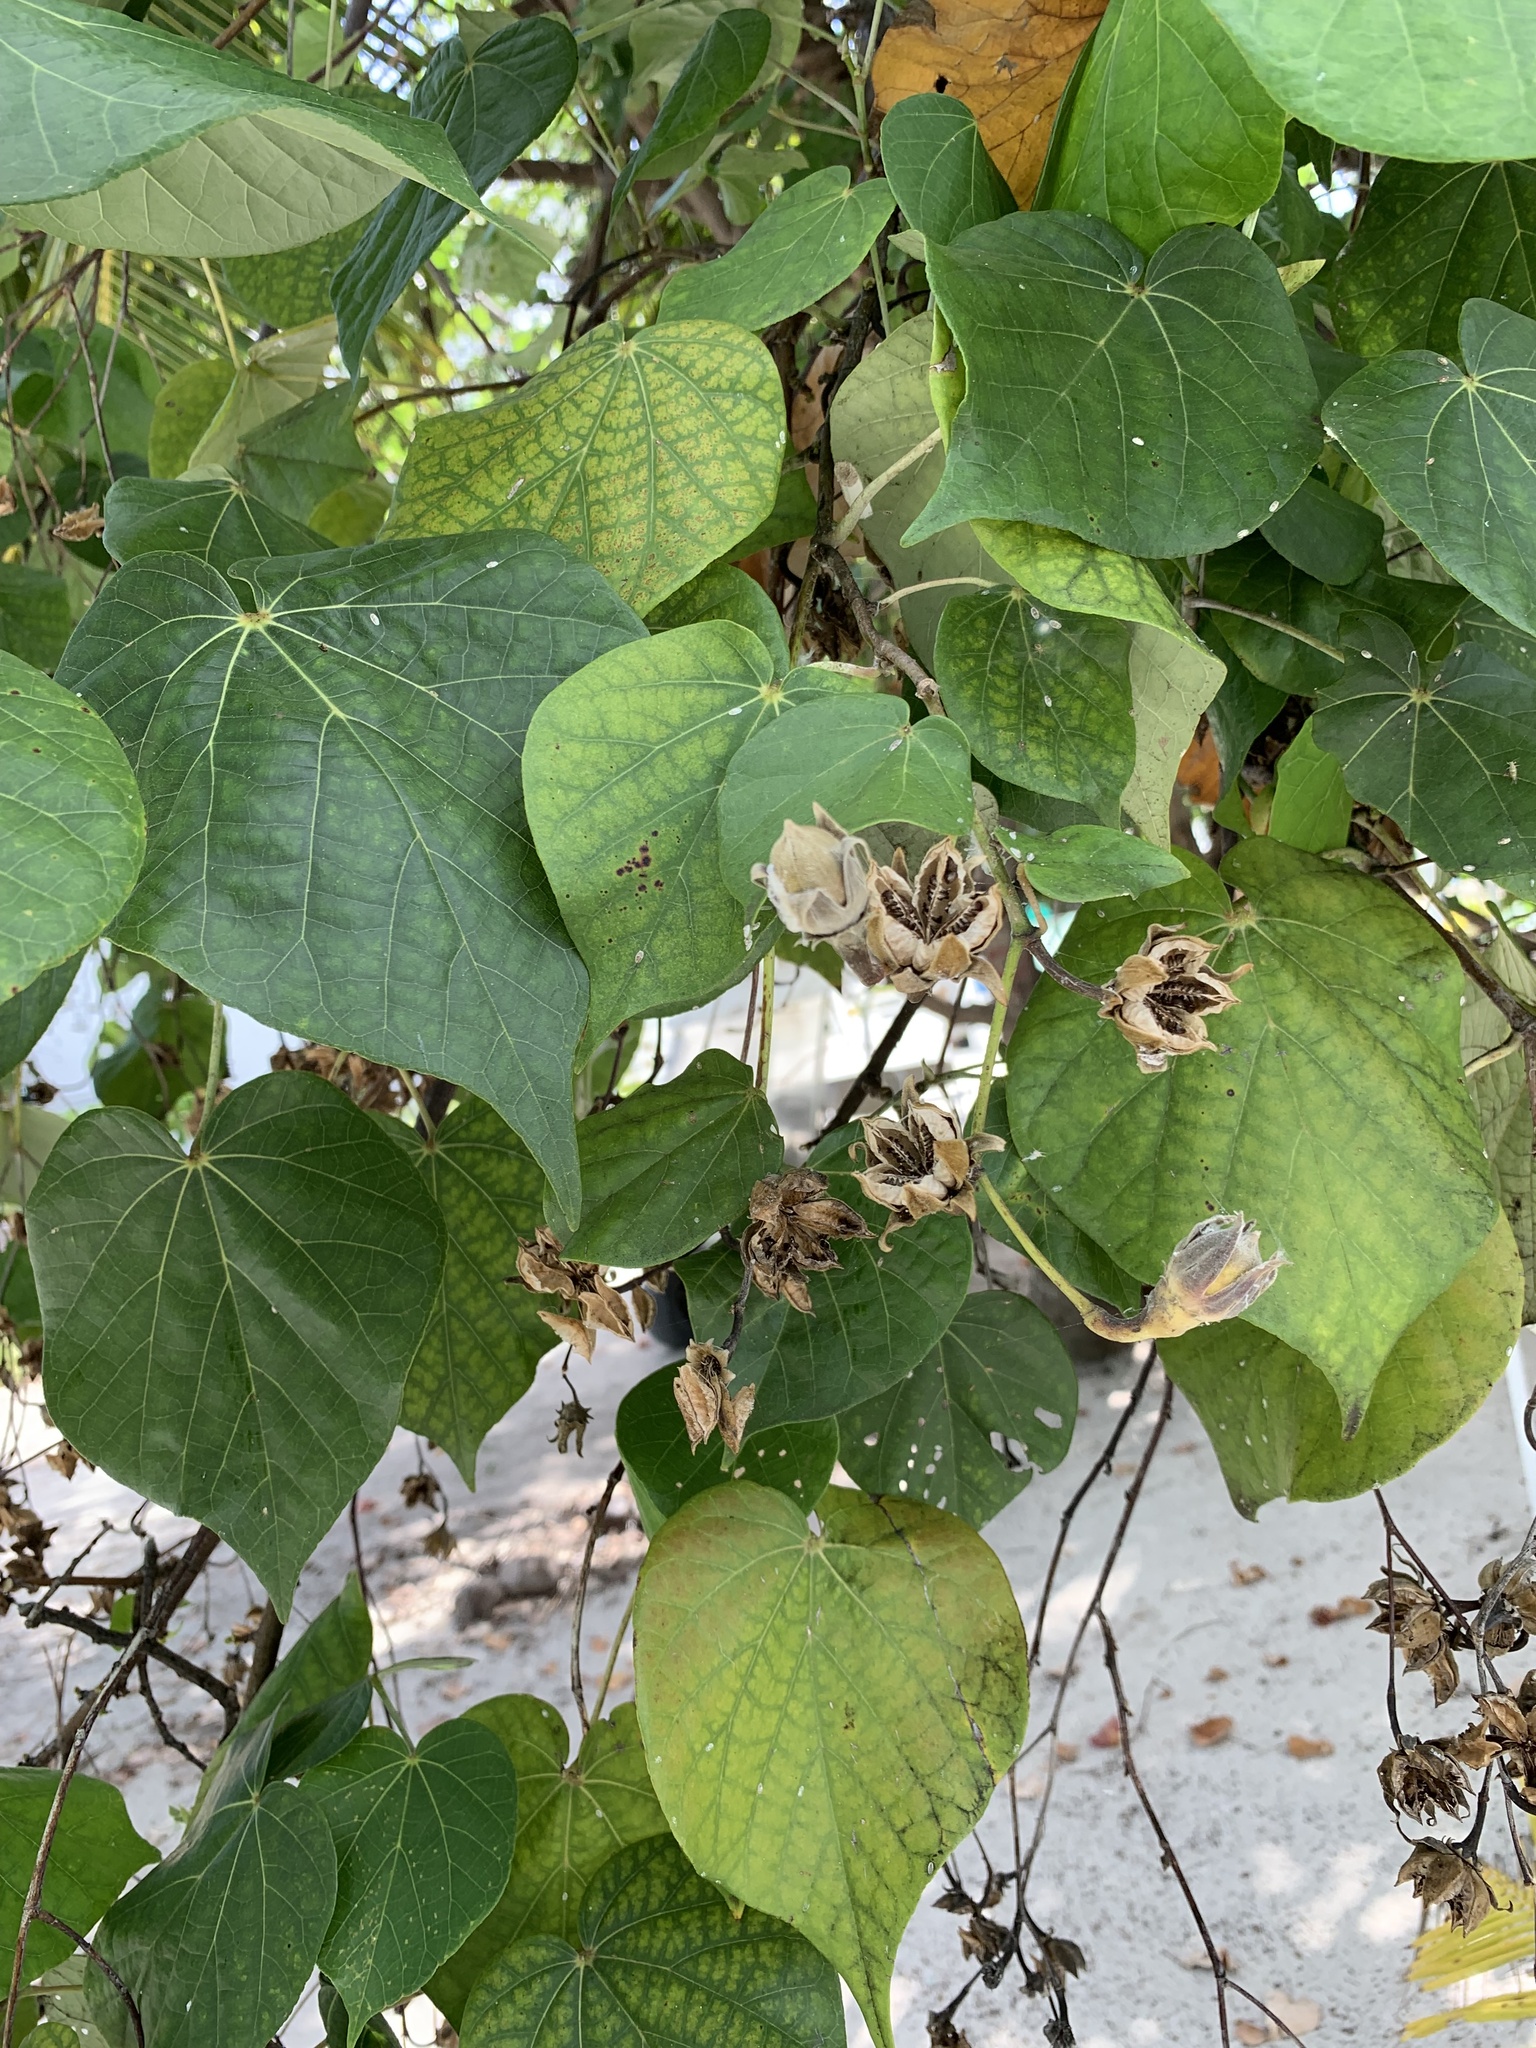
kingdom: Plantae
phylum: Tracheophyta
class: Magnoliopsida
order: Malvales
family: Malvaceae
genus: Talipariti
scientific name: Talipariti tiliaceum
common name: Sea hibiscus
